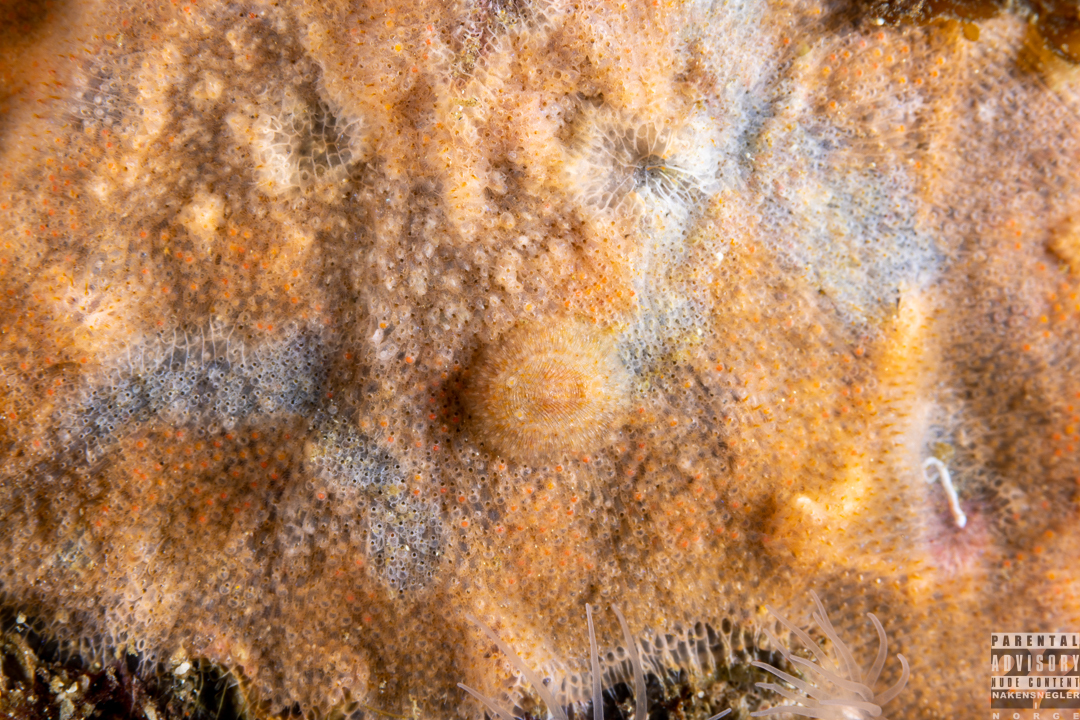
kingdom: Animalia
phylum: Mollusca
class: Gastropoda
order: Nudibranchia
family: Onchidorididae
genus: Idaliadoris
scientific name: Idaliadoris depressa
